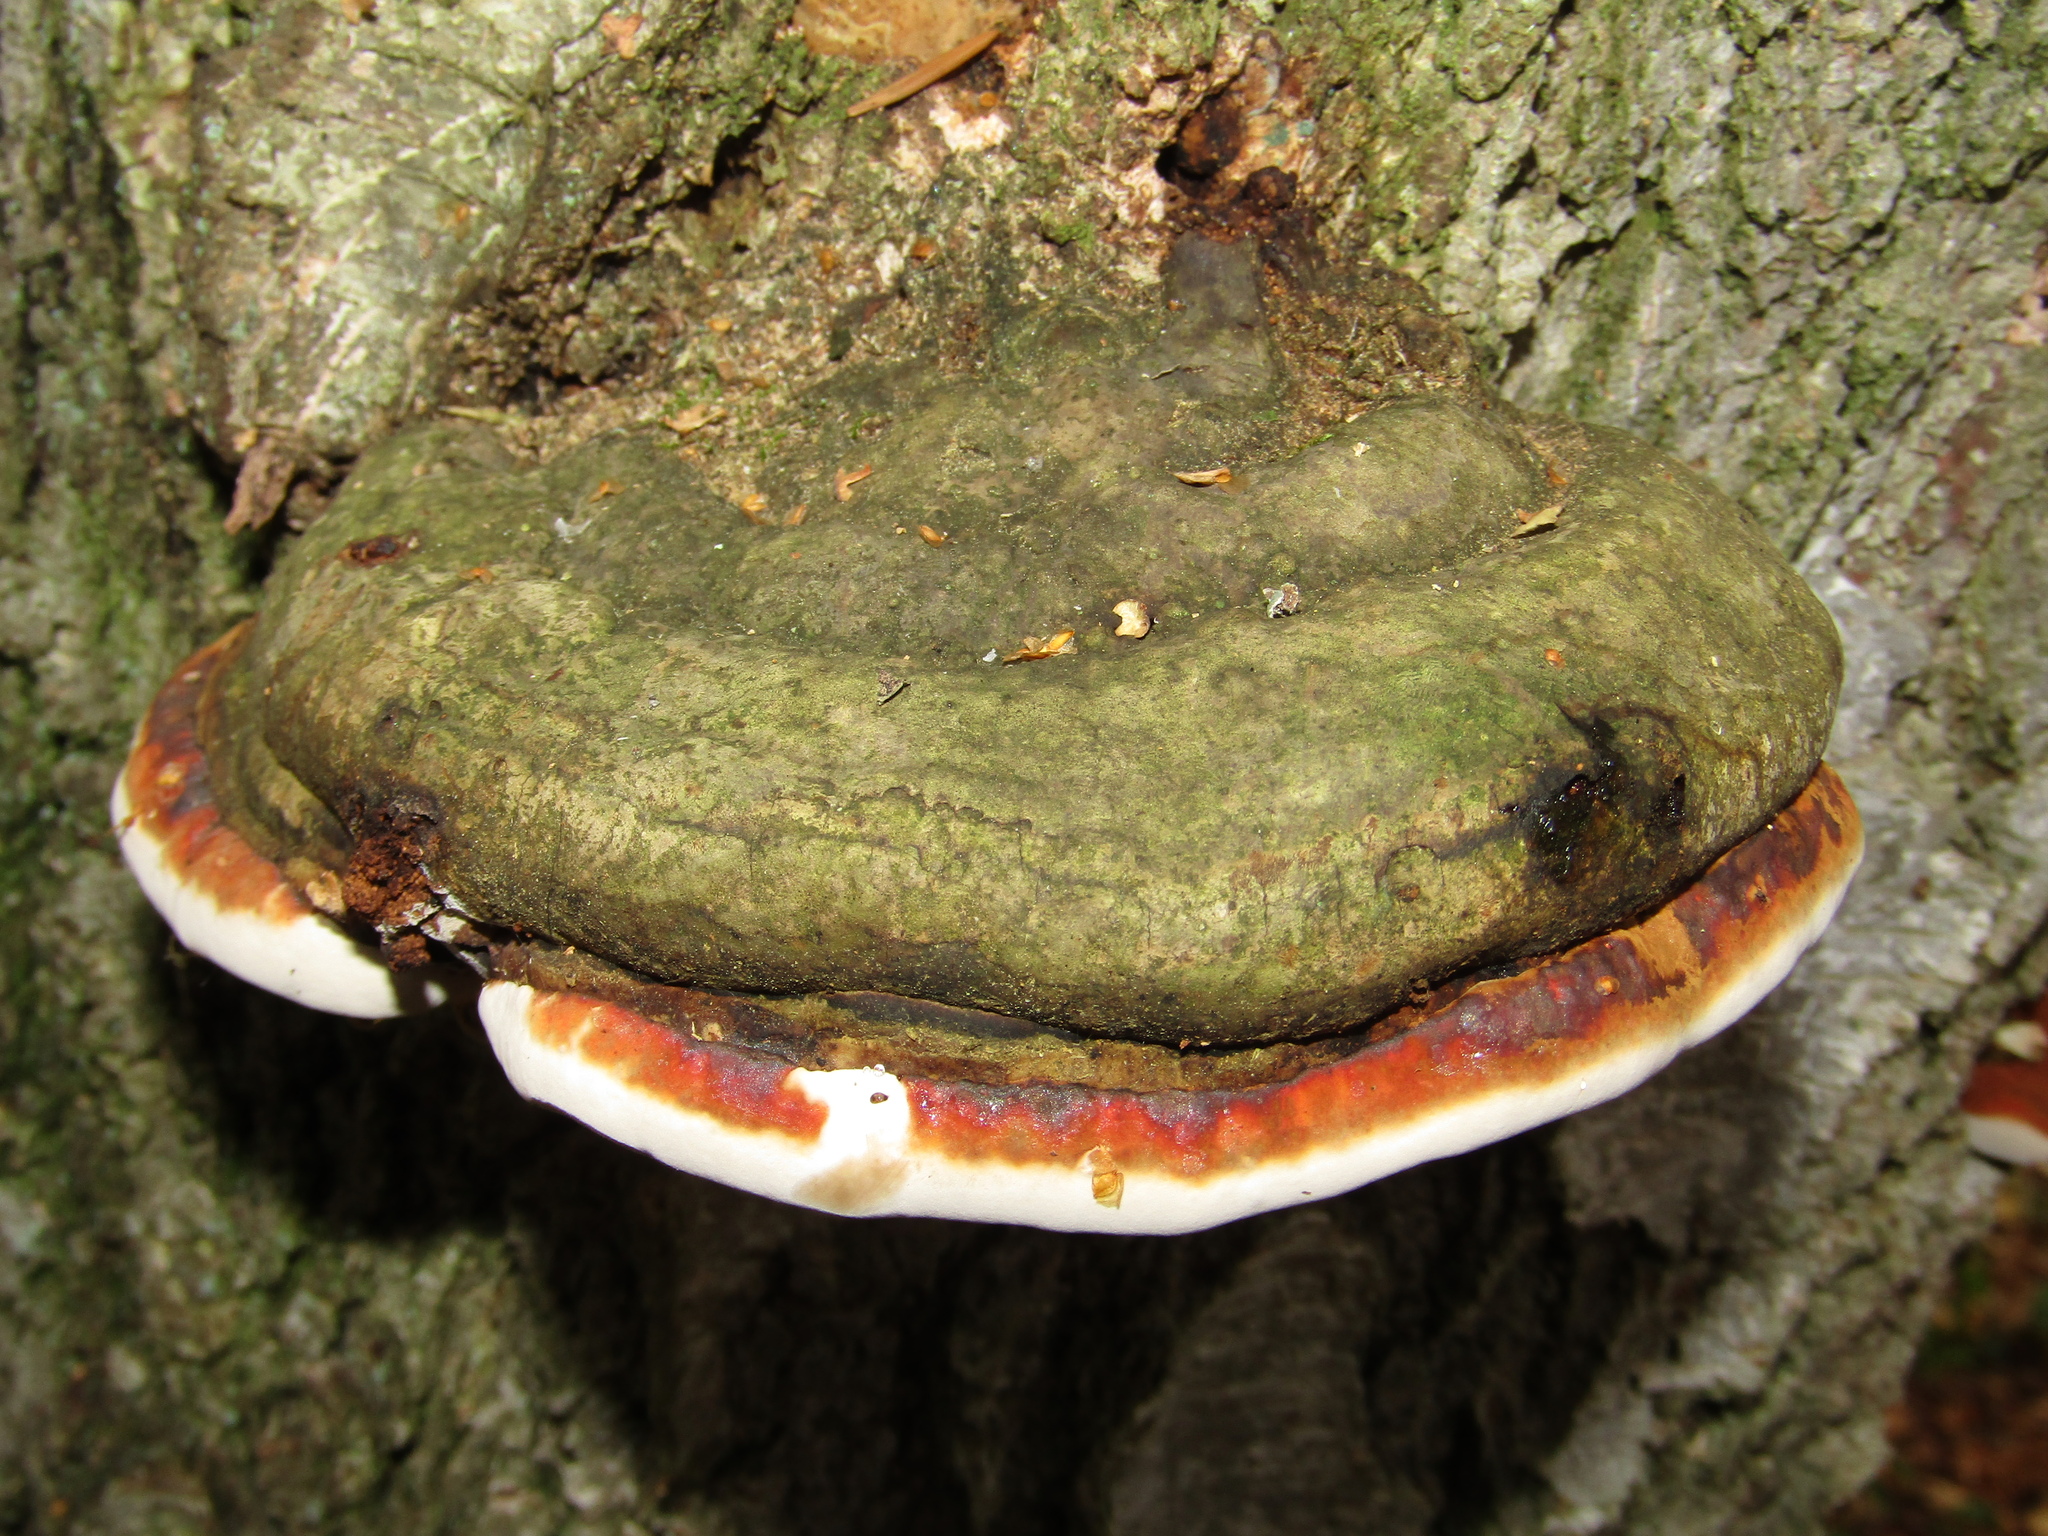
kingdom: Fungi
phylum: Basidiomycota
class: Agaricomycetes
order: Polyporales
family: Fomitopsidaceae
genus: Fomitopsis
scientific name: Fomitopsis pinicola
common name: Red-belted bracket
